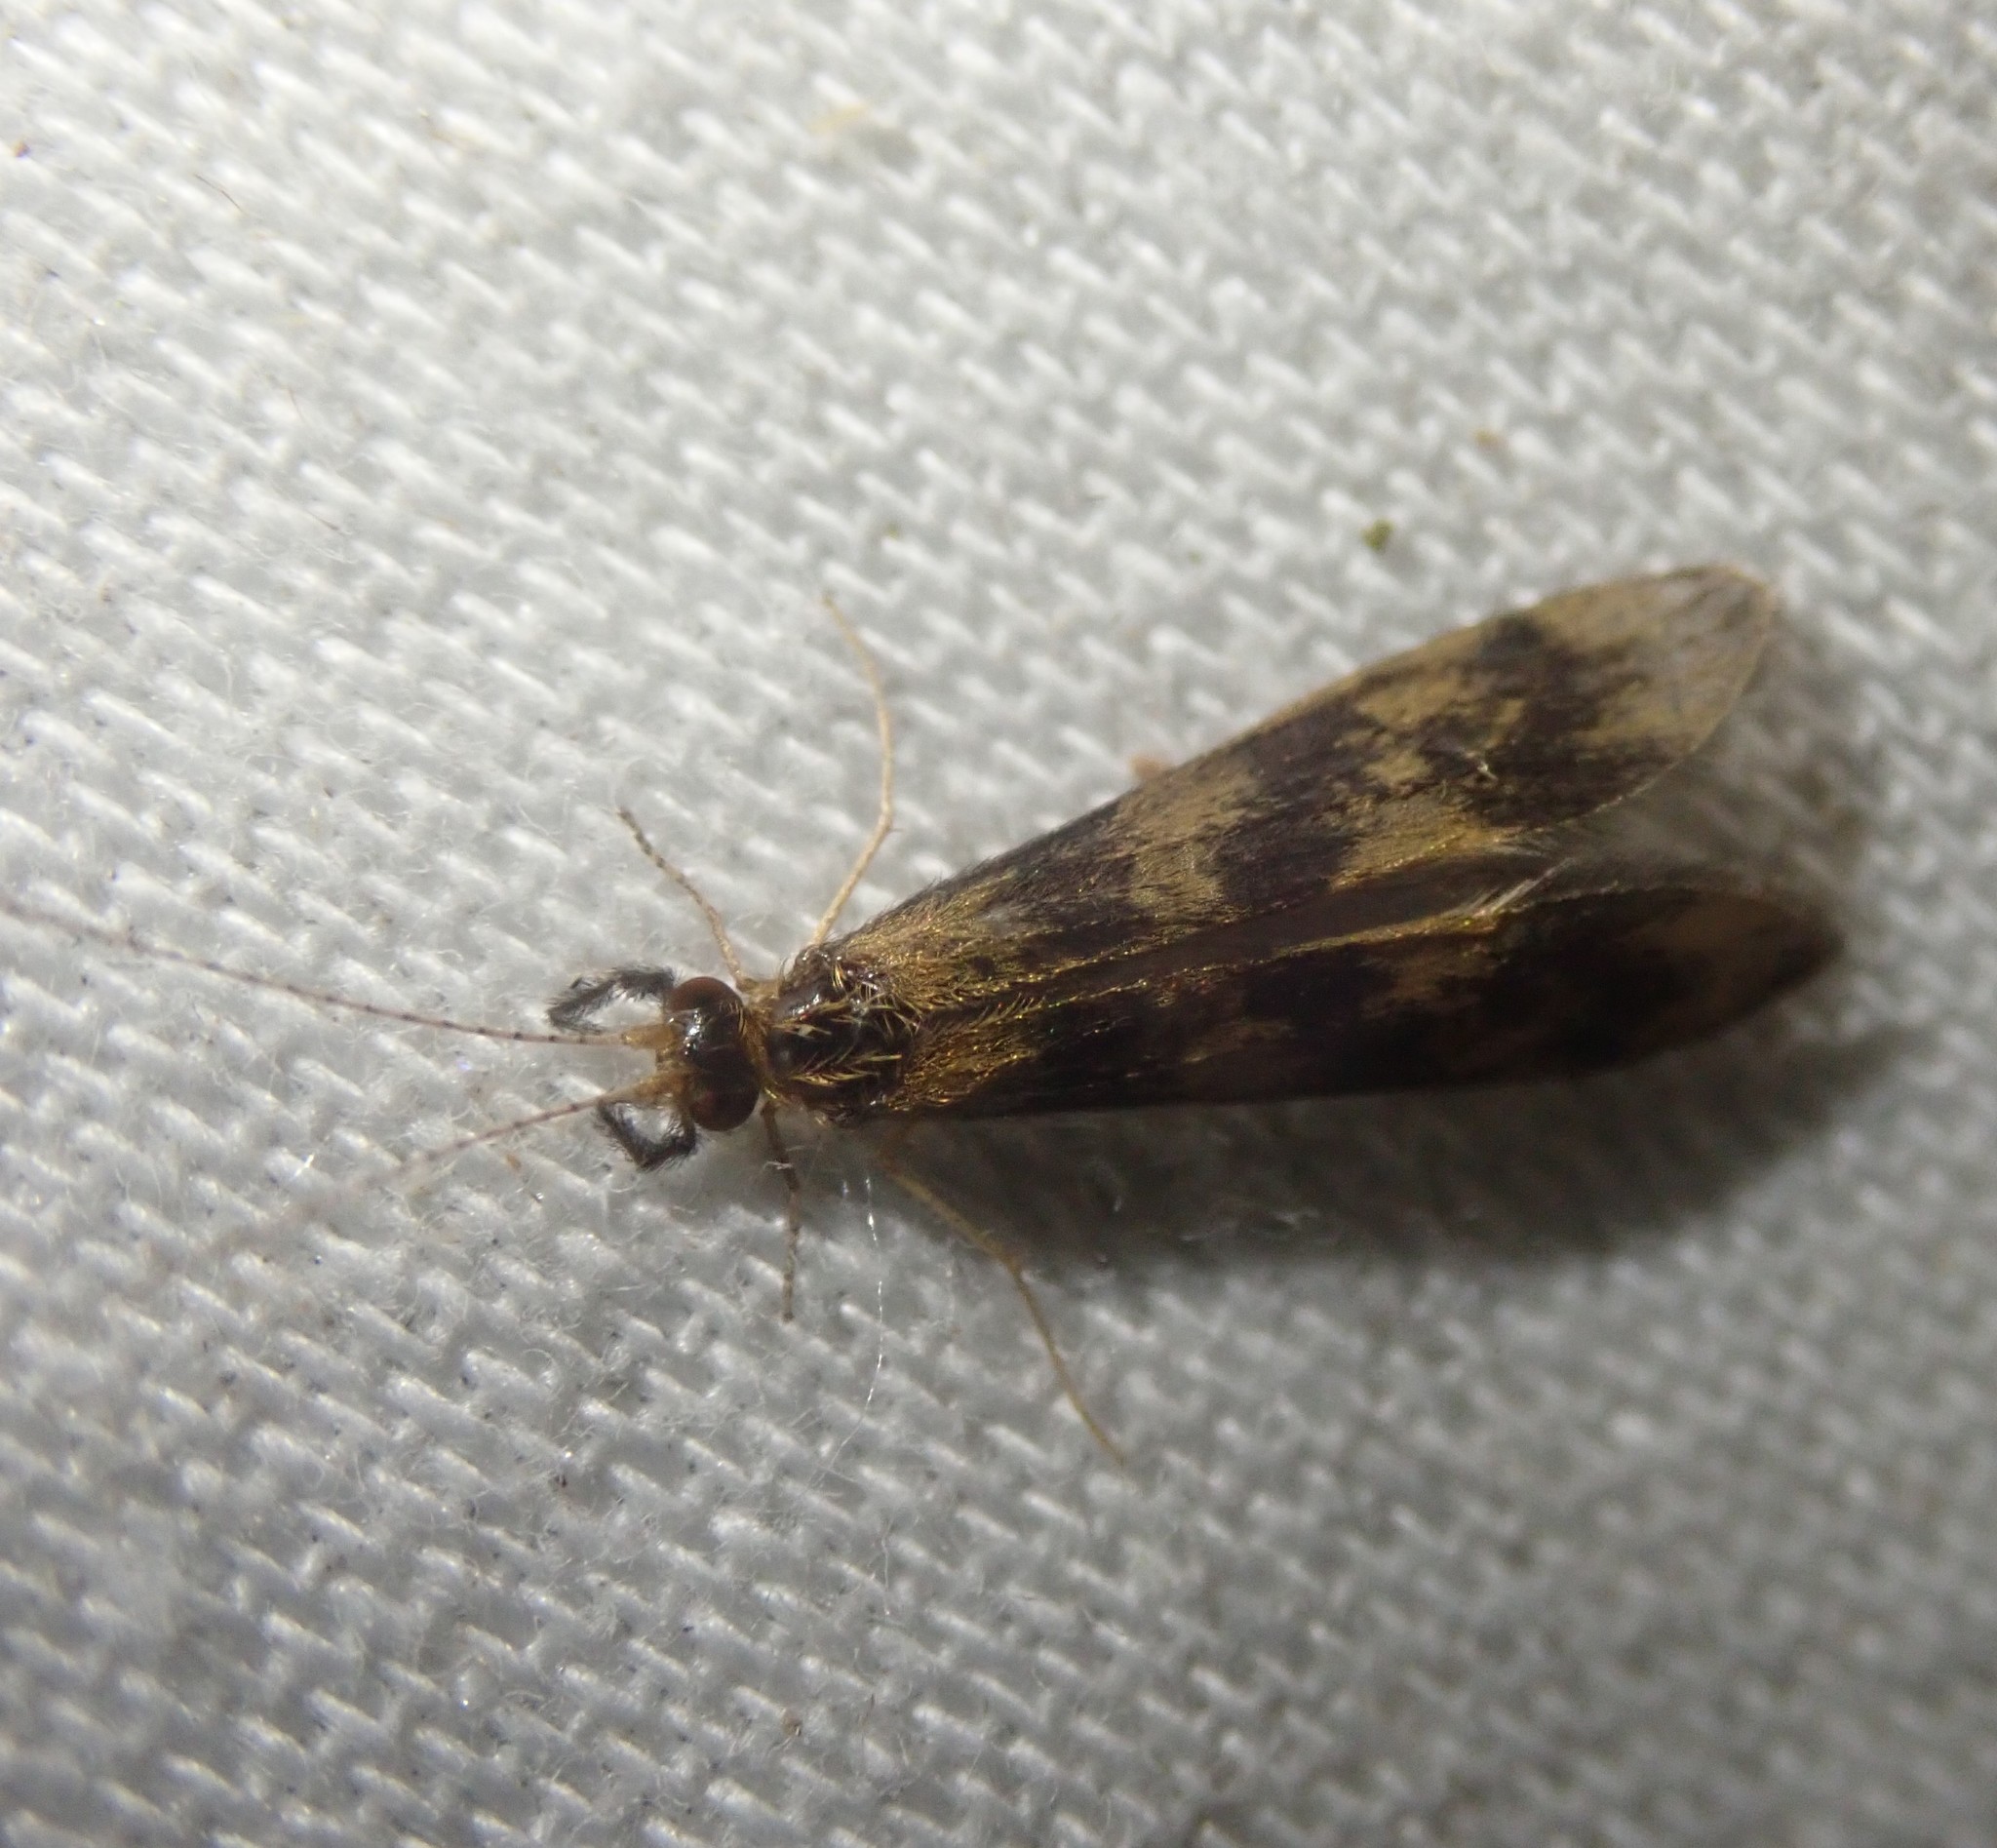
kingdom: Animalia
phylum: Arthropoda
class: Insecta
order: Trichoptera
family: Leptoceridae
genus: Mystacides
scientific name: Mystacides longicornis
